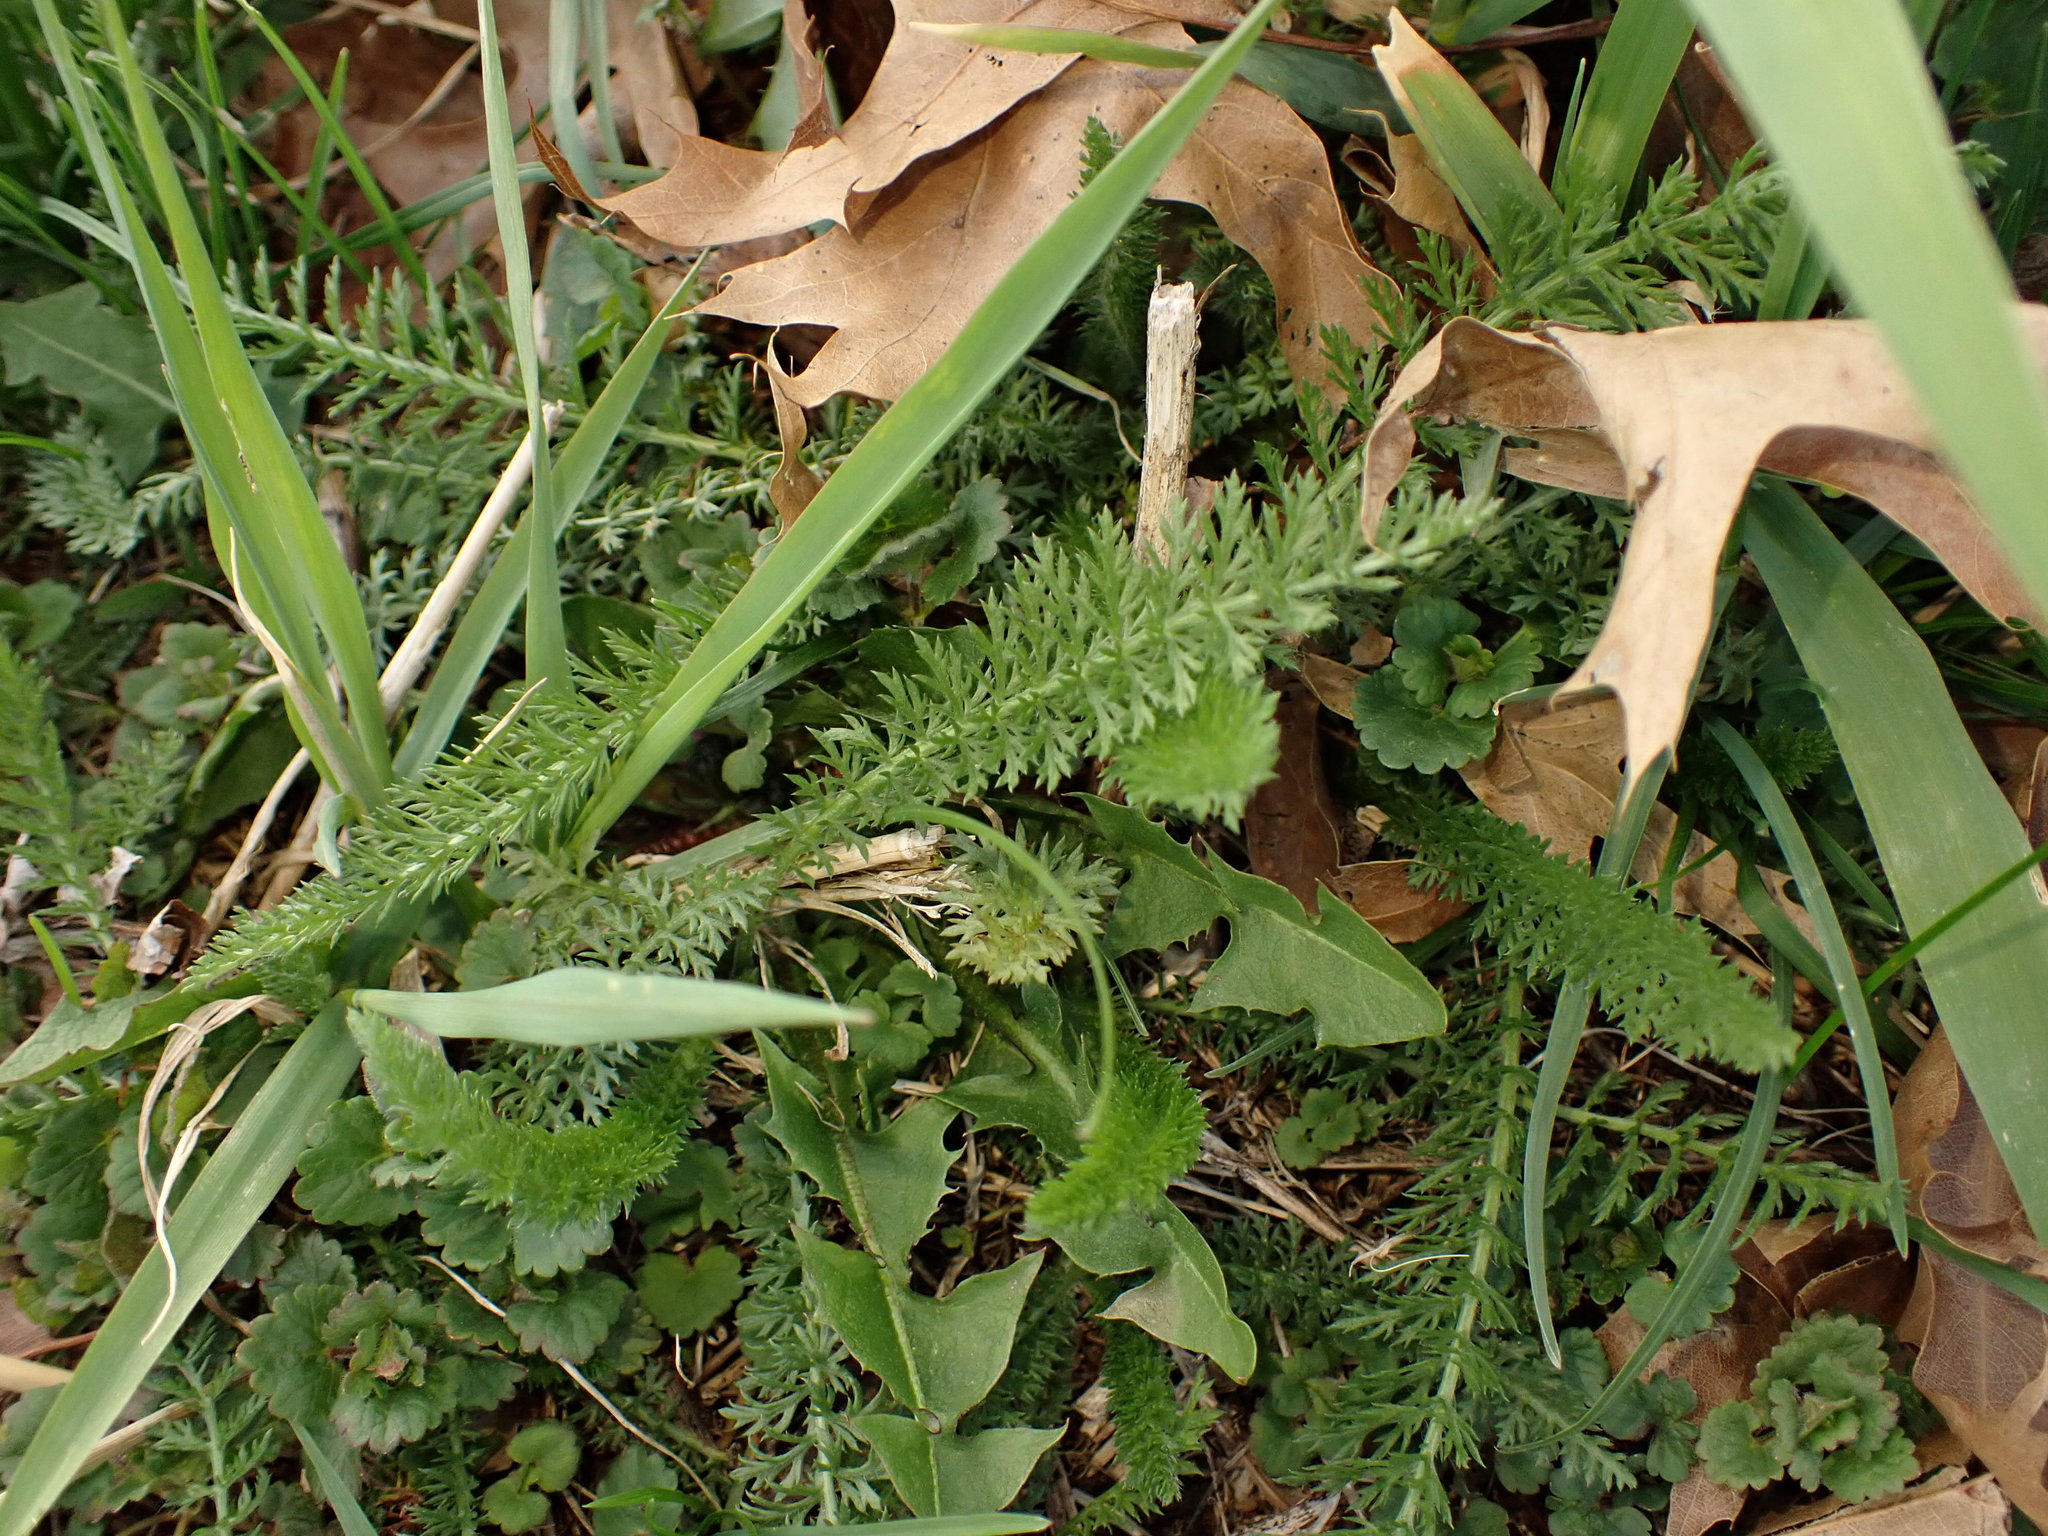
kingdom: Plantae
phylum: Tracheophyta
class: Magnoliopsida
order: Asterales
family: Asteraceae
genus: Achillea
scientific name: Achillea millefolium
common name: Yarrow
